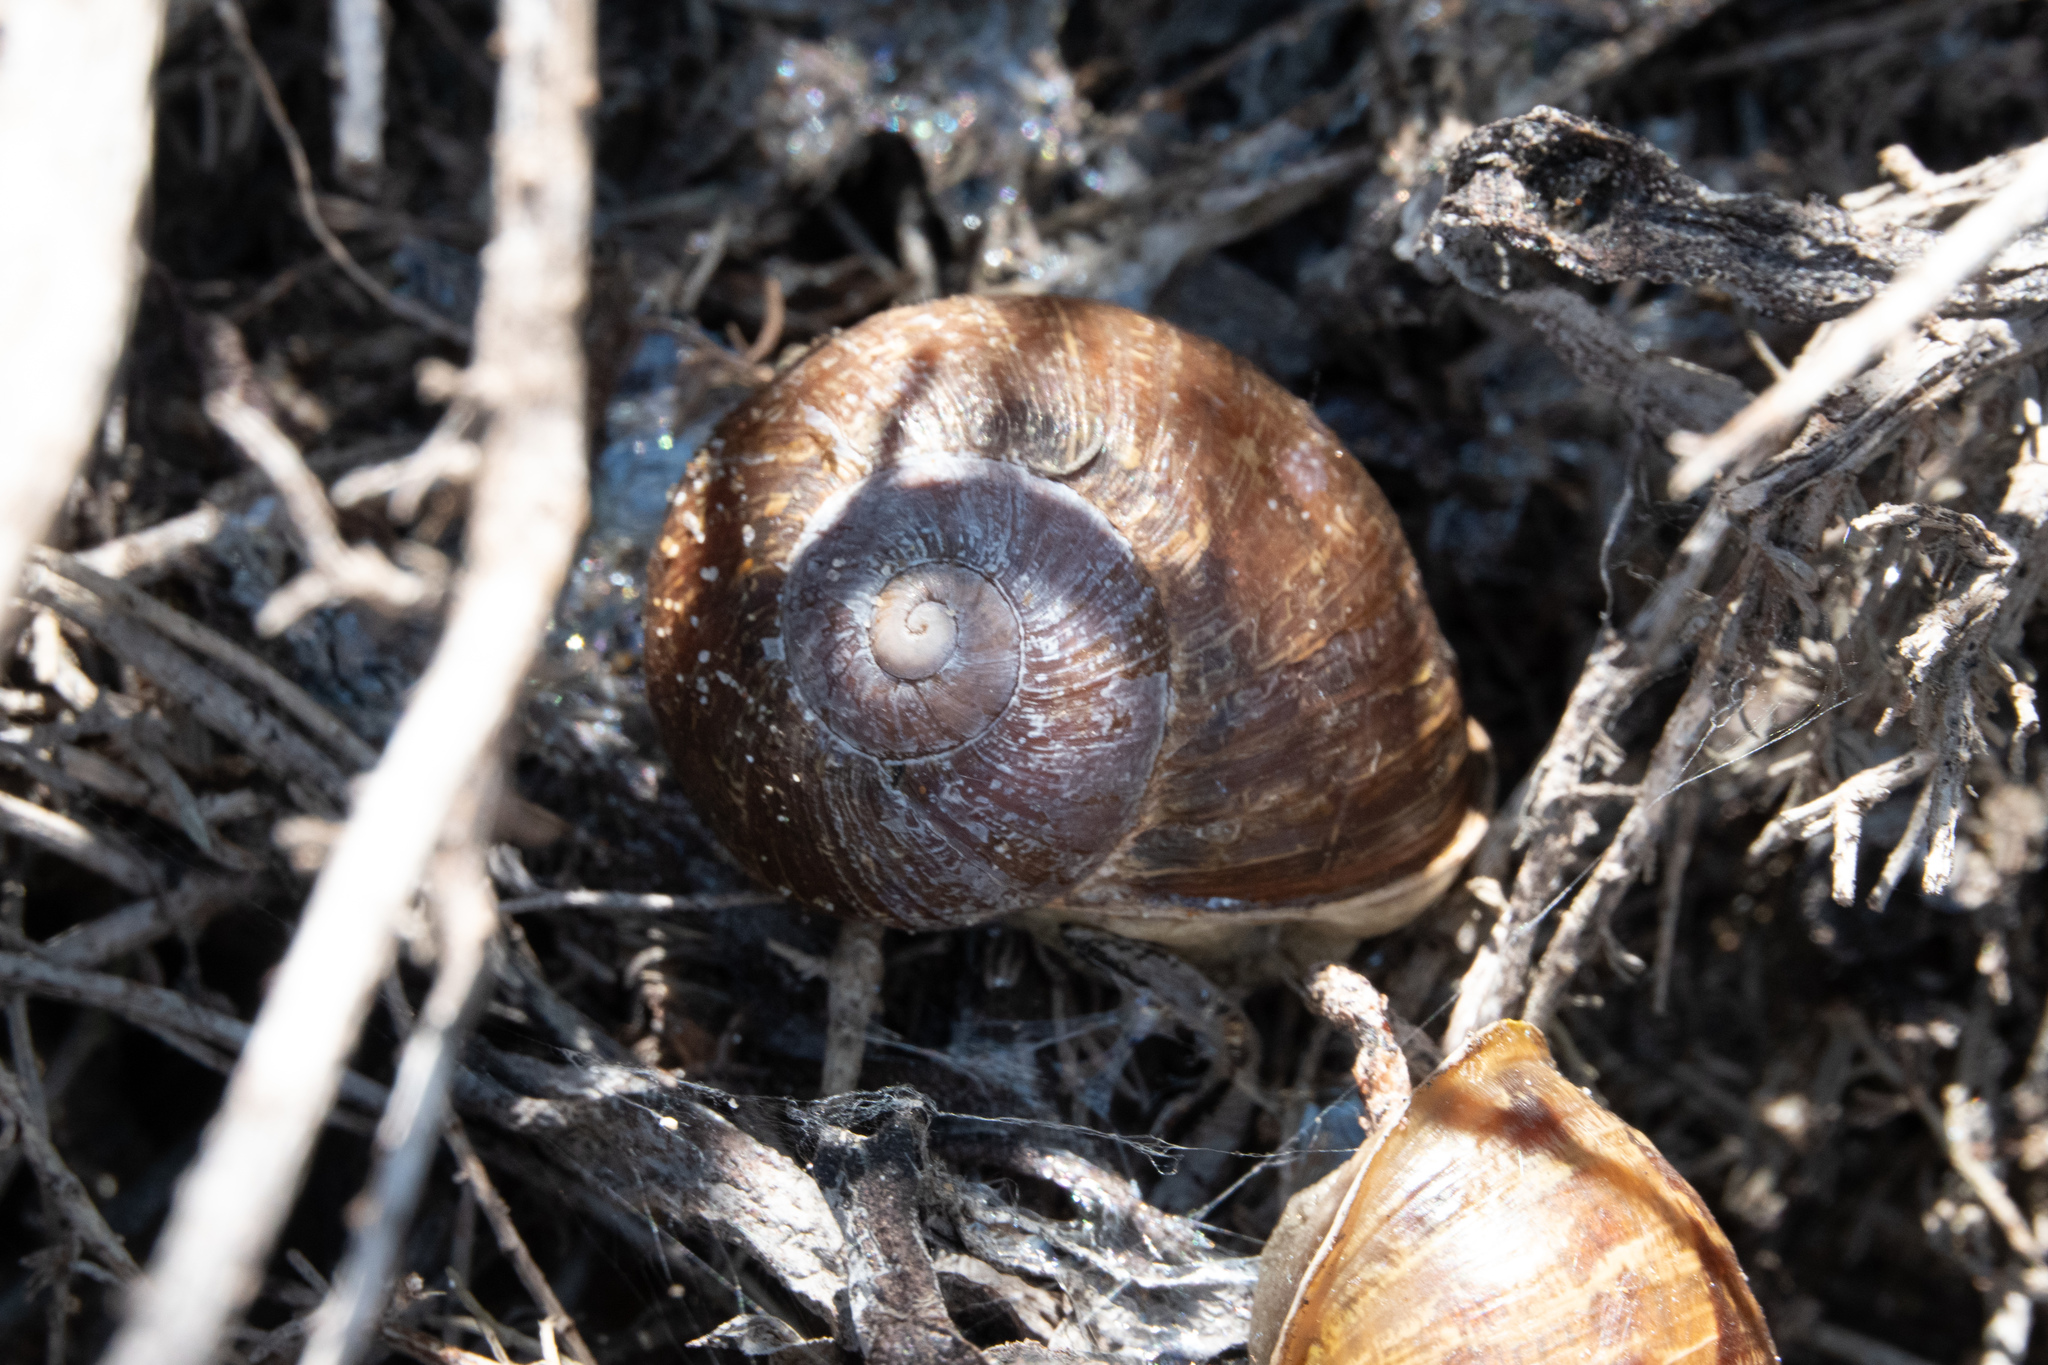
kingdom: Animalia
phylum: Mollusca
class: Gastropoda
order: Stylommatophora
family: Helicidae
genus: Cornu
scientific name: Cornu aspersum
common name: Brown garden snail
